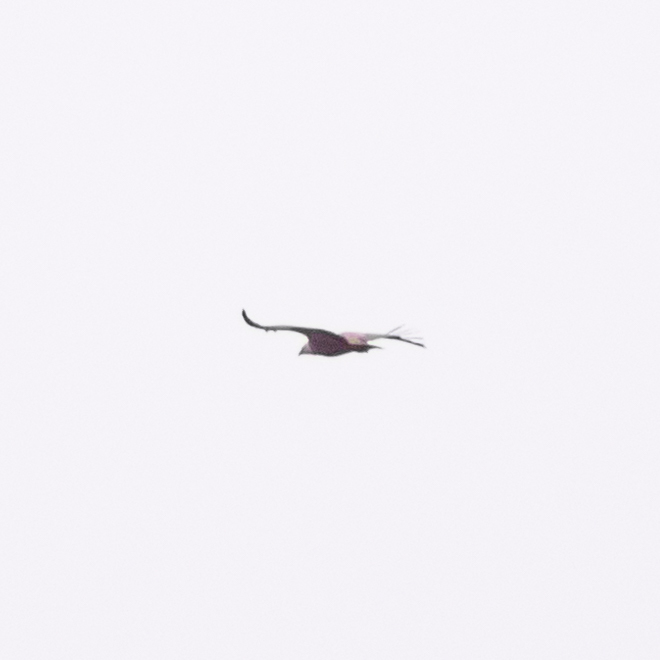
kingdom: Animalia
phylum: Chordata
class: Aves
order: Accipitriformes
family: Accipitridae
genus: Gyps
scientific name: Gyps fulvus
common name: Griffon vulture
